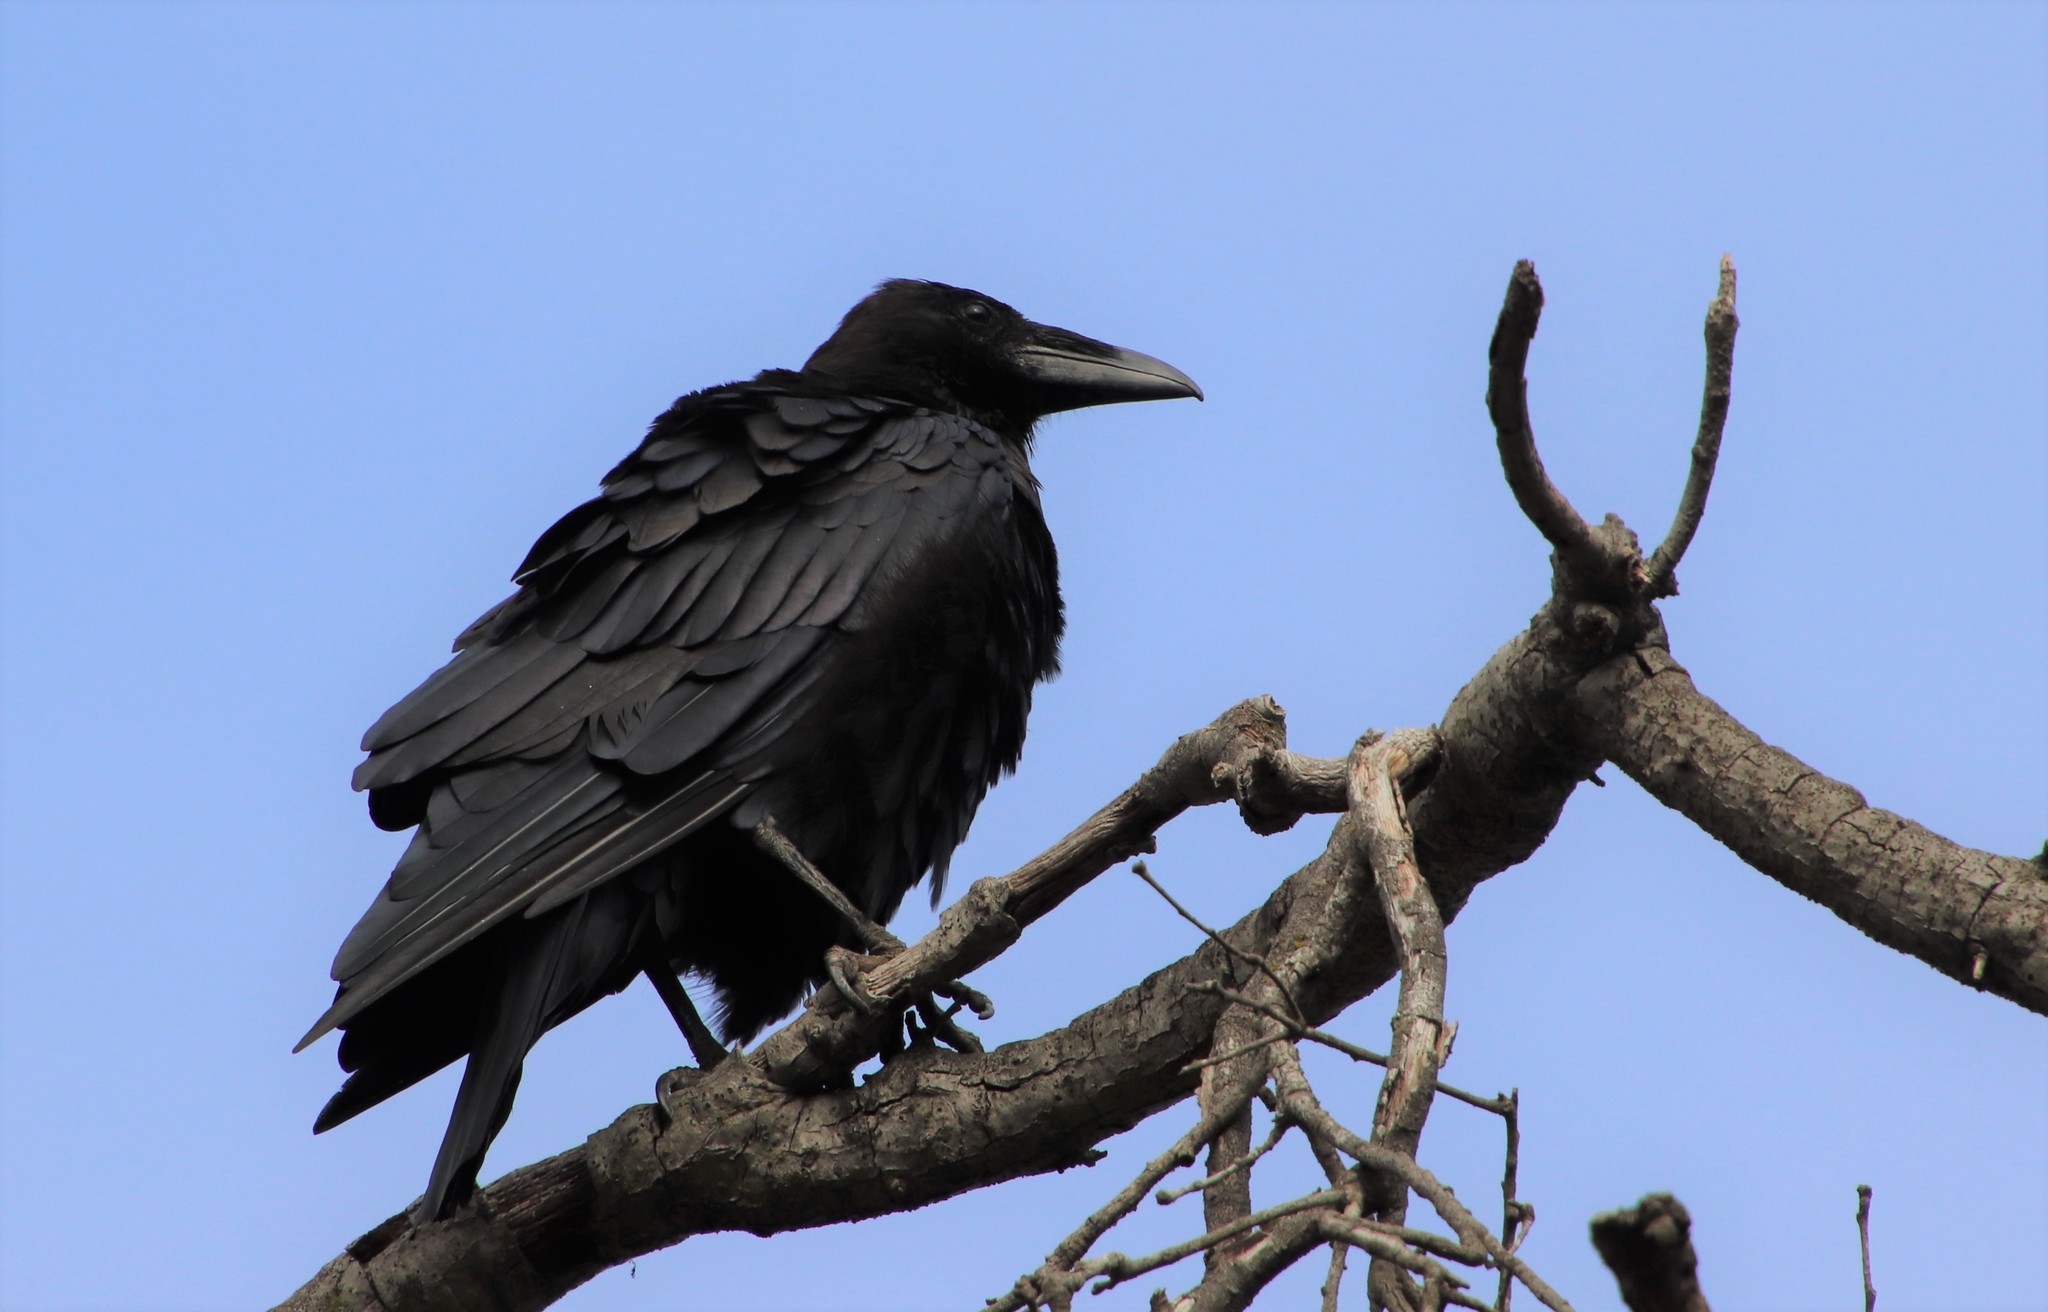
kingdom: Animalia
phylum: Chordata
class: Aves
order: Passeriformes
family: Corvidae
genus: Corvus
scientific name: Corvus corax
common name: Common raven
